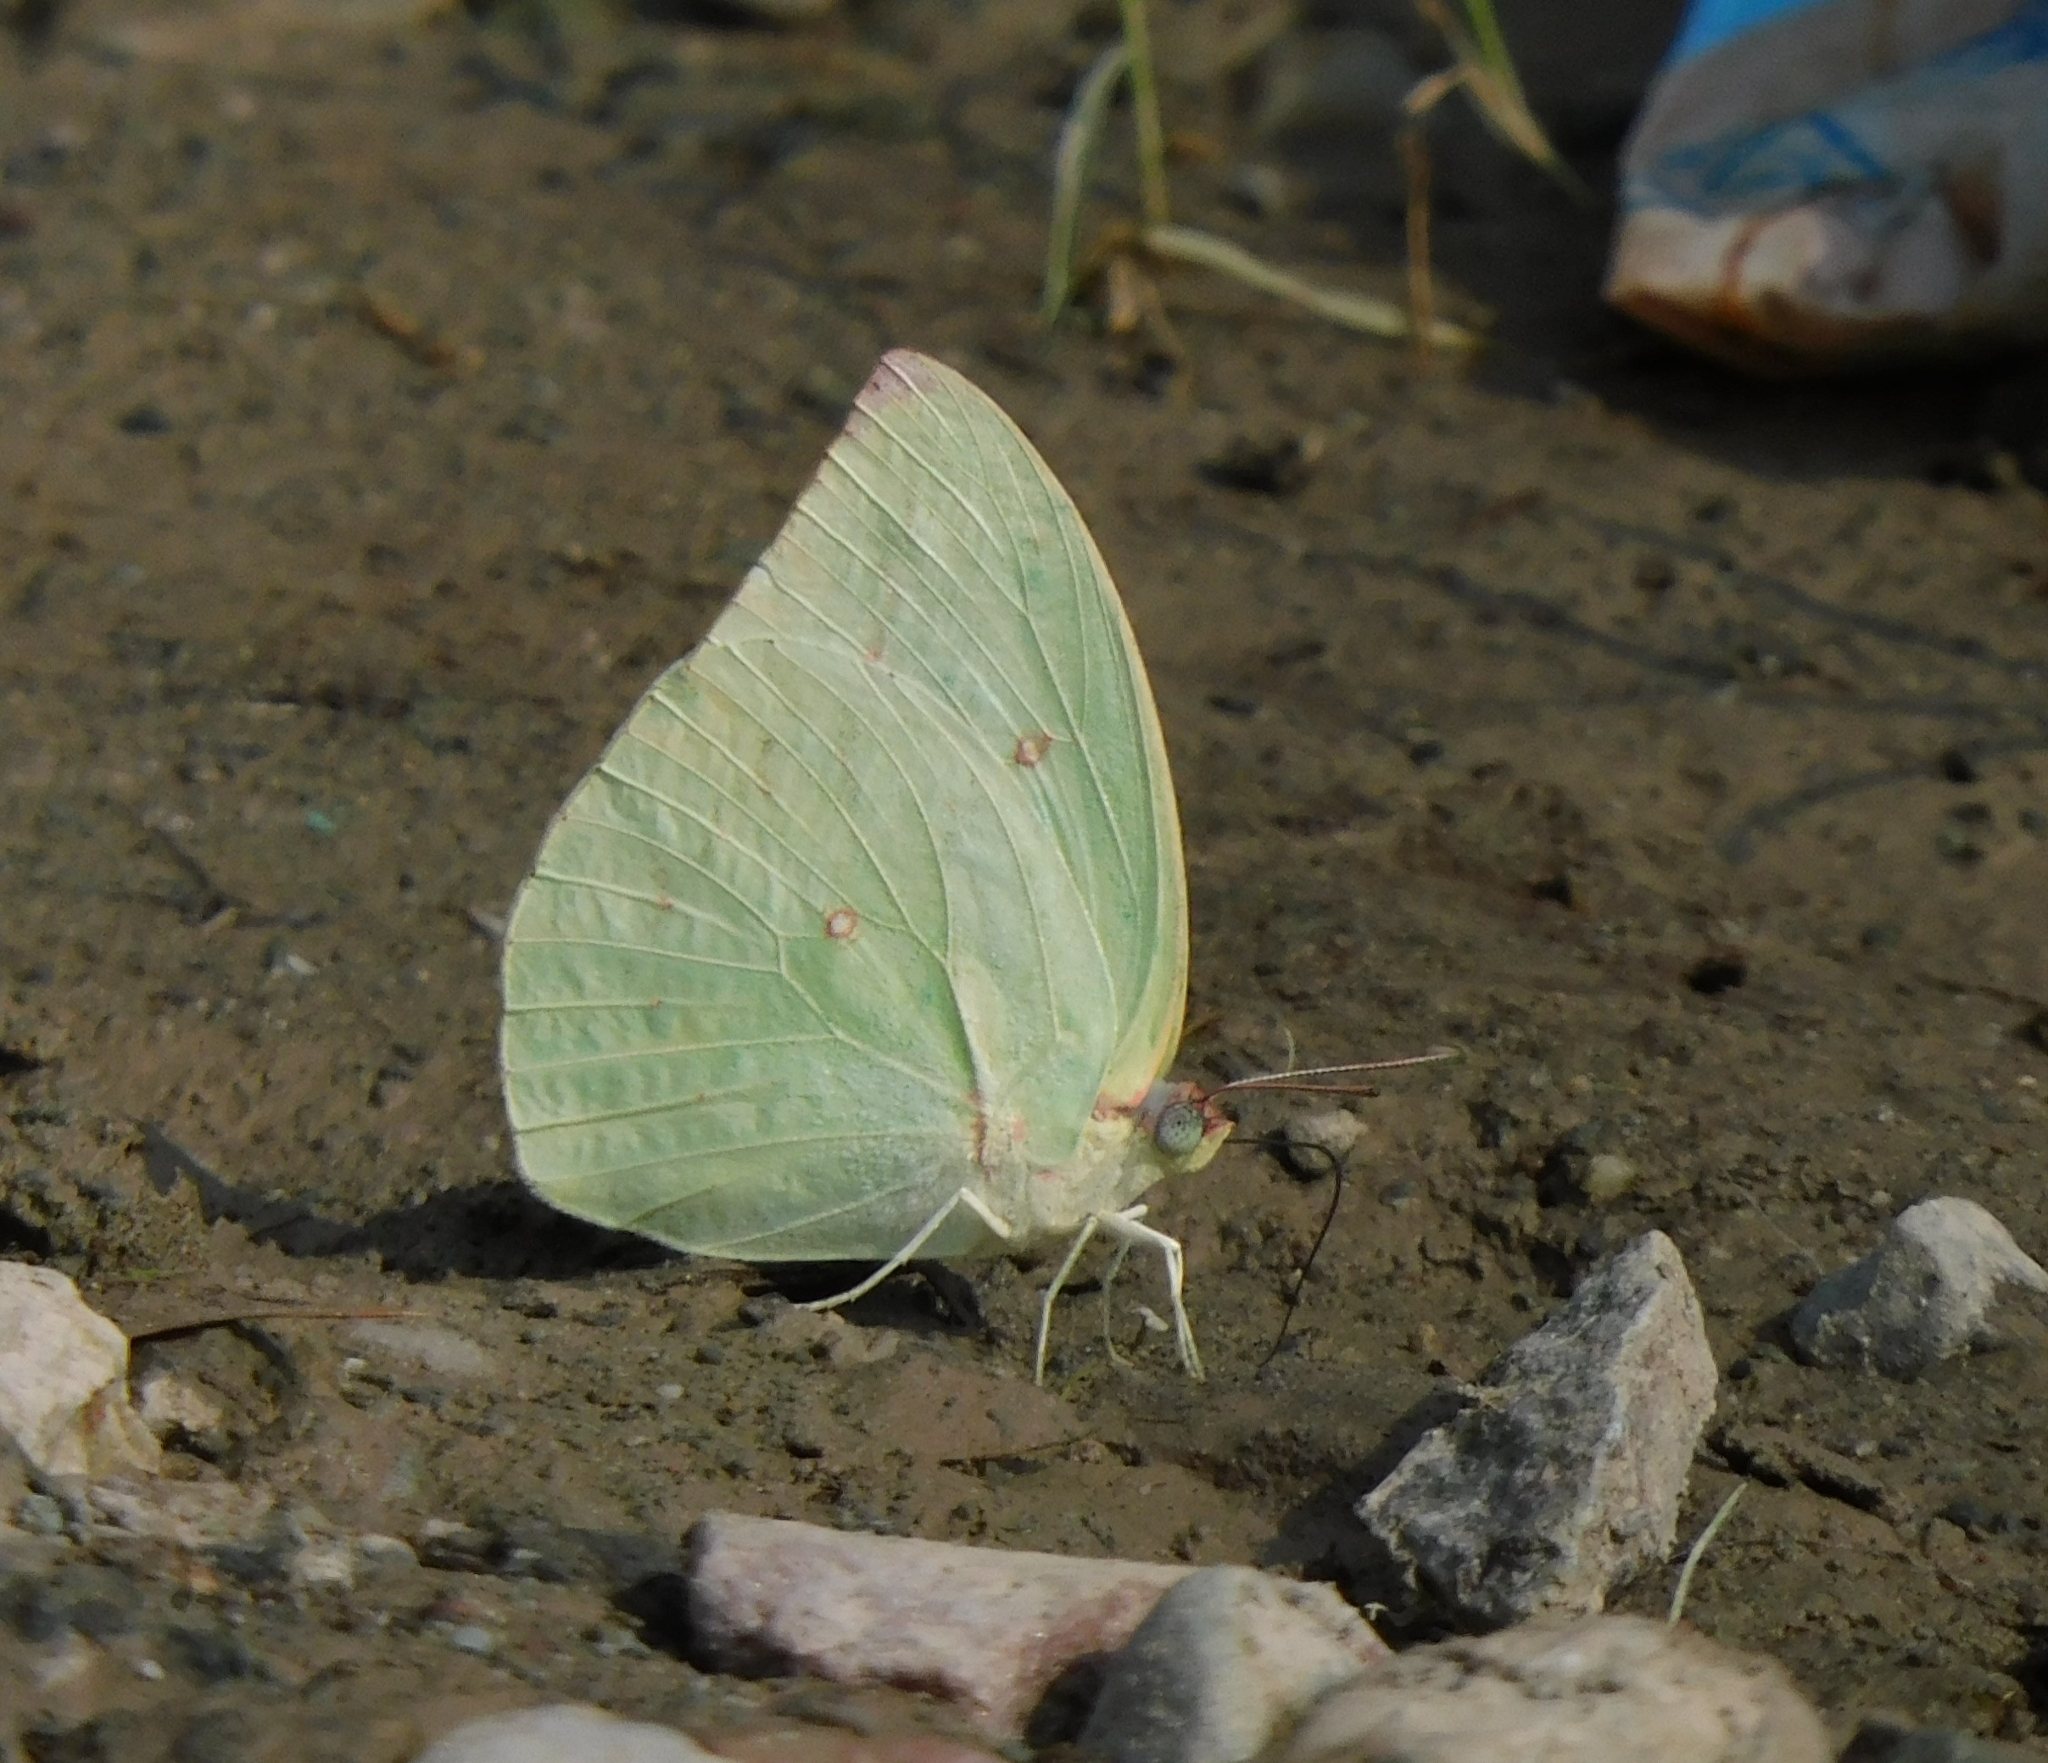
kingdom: Animalia
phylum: Arthropoda
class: Insecta
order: Lepidoptera
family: Pieridae
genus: Catopsilia
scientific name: Catopsilia pomona
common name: Common emigrant
